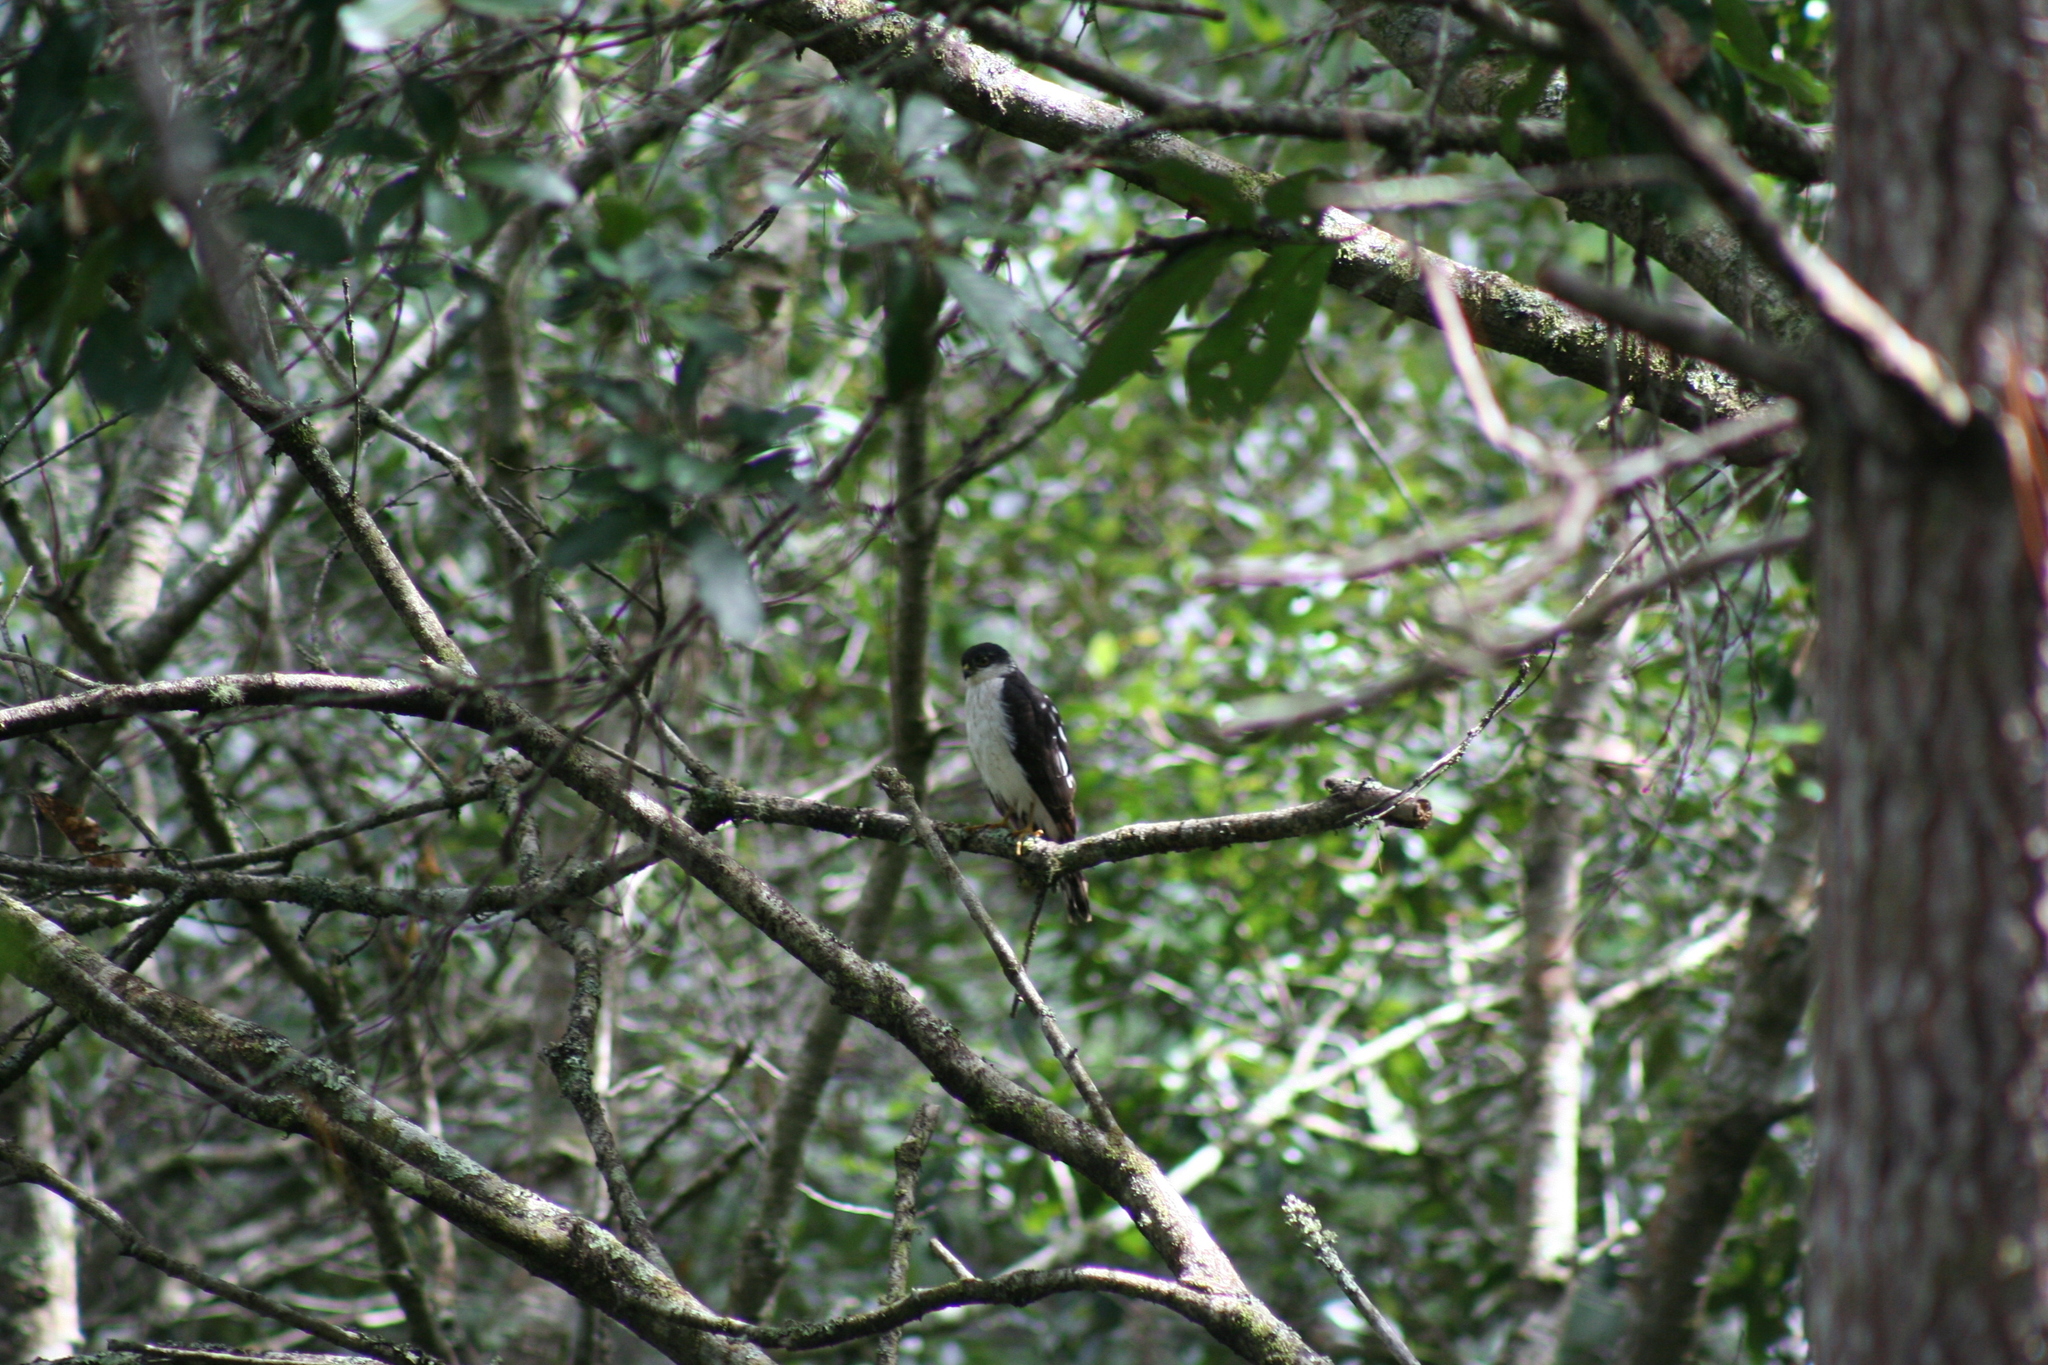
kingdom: Animalia
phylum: Chordata
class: Aves
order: Accipitriformes
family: Accipitridae
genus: Accipiter
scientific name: Accipiter striatus
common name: Sharp-shinned hawk
